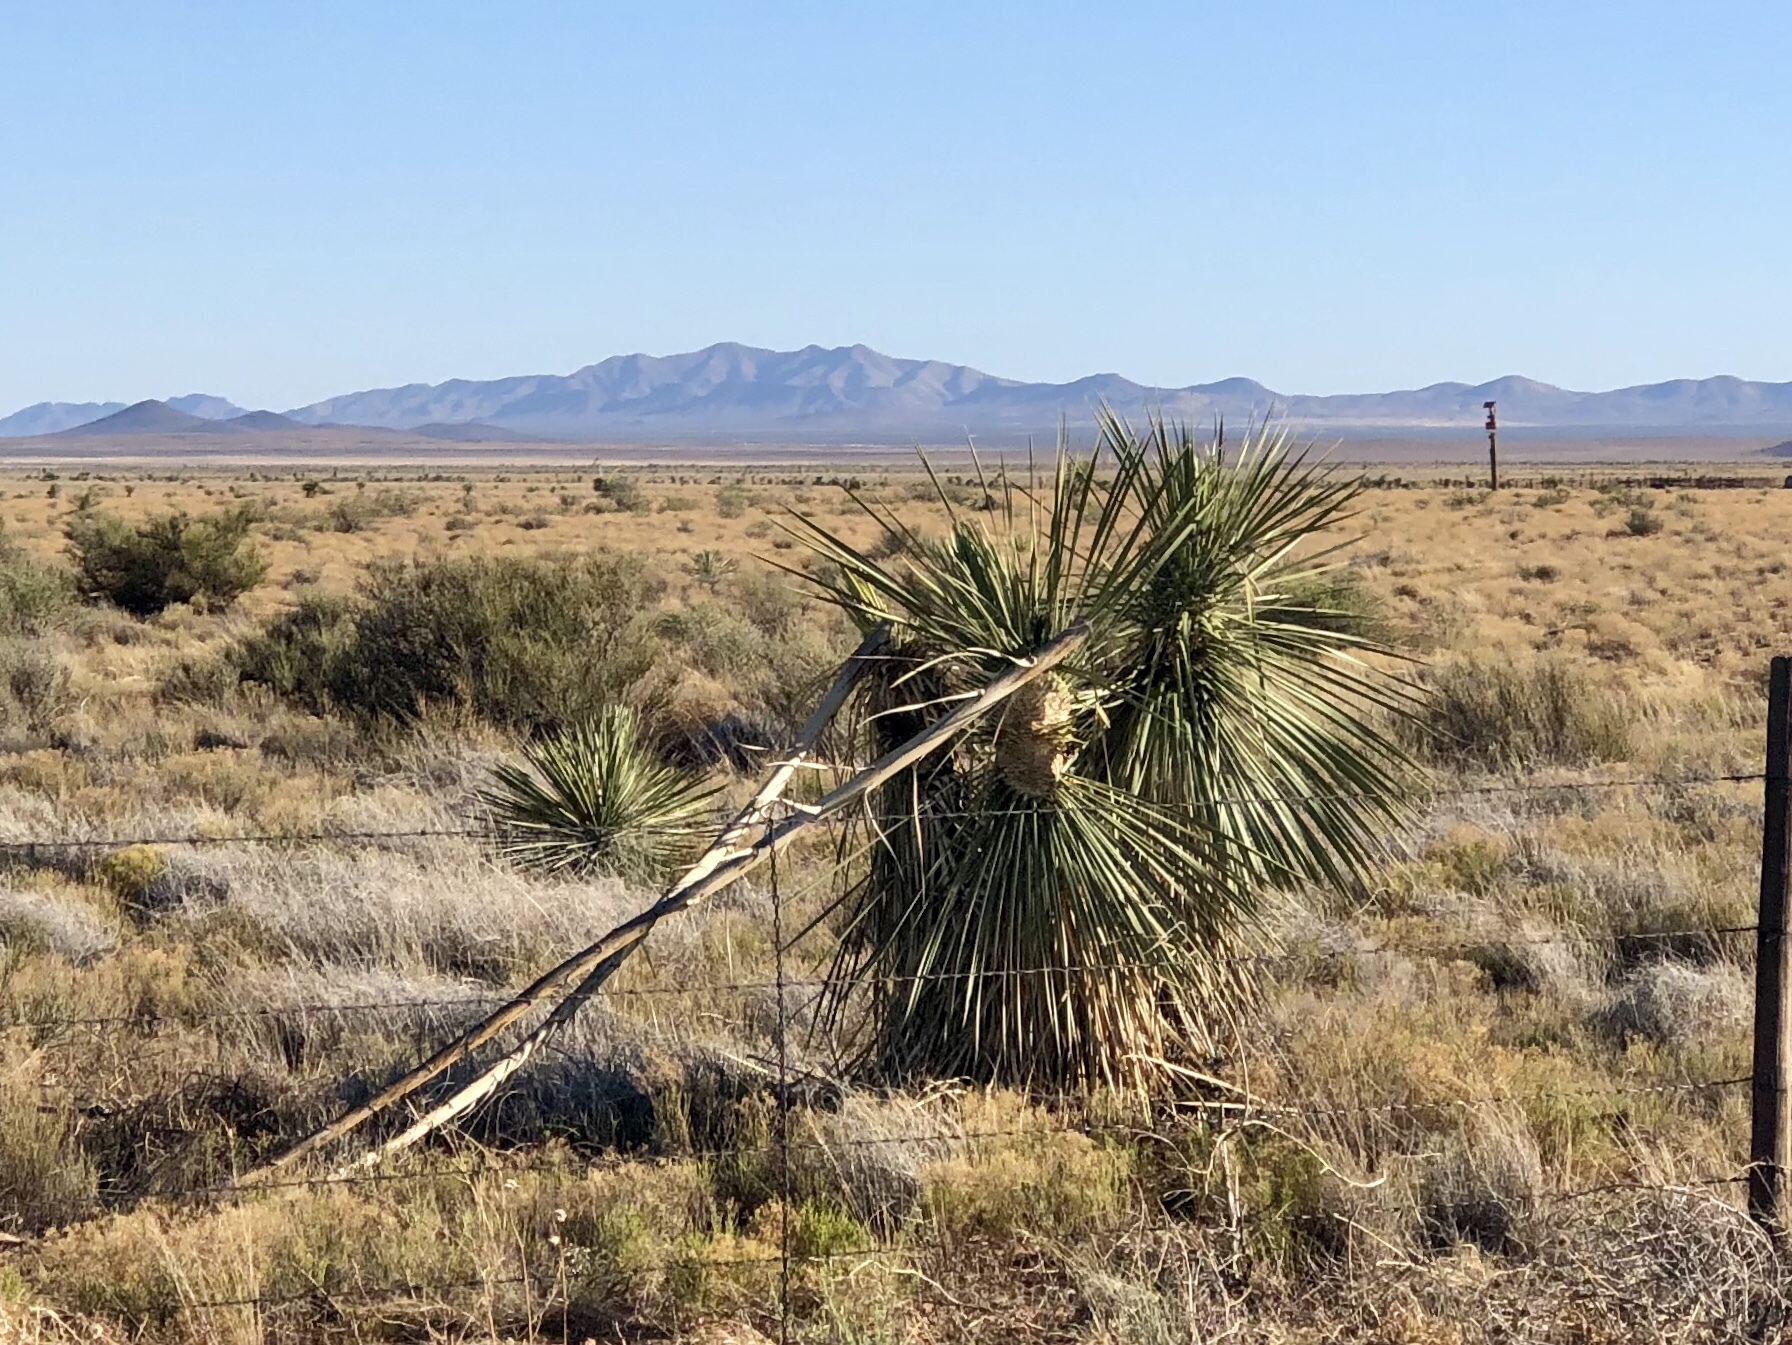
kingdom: Plantae
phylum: Tracheophyta
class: Liliopsida
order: Asparagales
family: Asparagaceae
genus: Yucca
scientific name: Yucca elata
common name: Palmella
